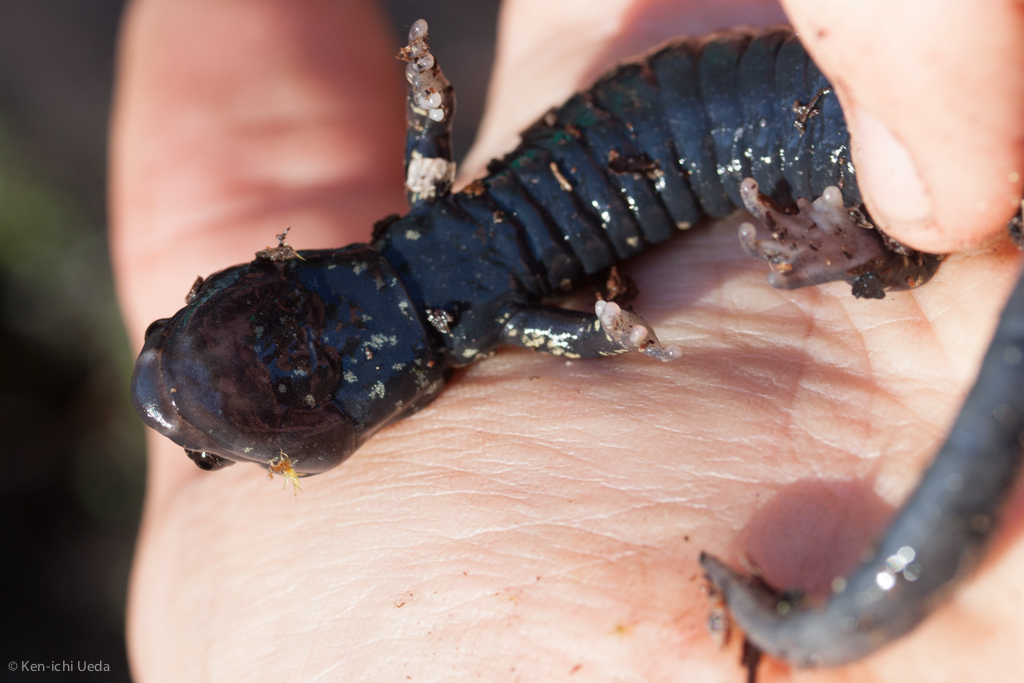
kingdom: Animalia
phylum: Chordata
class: Amphibia
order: Caudata
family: Plethodontidae
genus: Aneides
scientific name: Aneides flavipunctatus
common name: Black salamander
